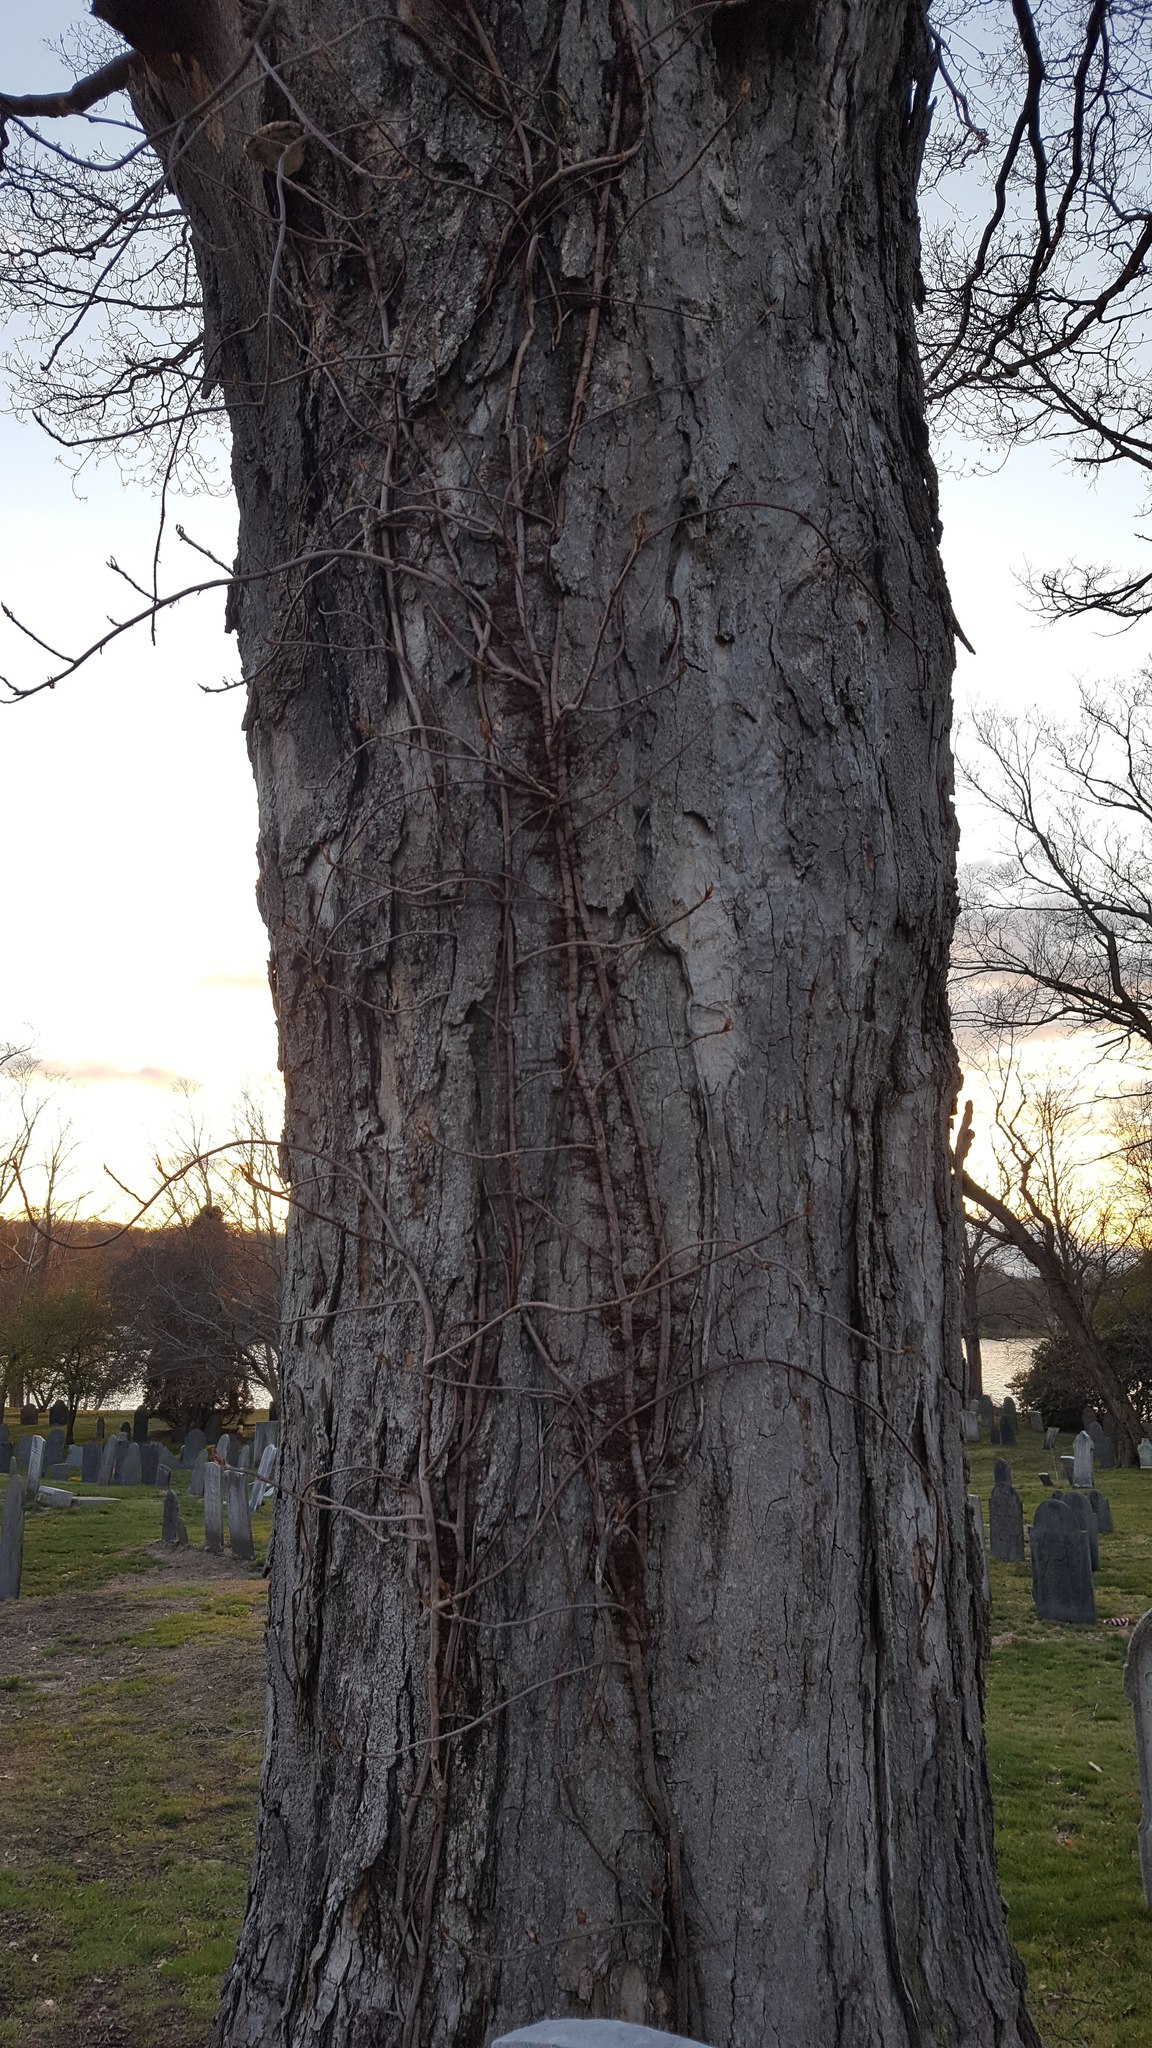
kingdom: Plantae
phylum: Tracheophyta
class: Magnoliopsida
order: Sapindales
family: Anacardiaceae
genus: Toxicodendron
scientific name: Toxicodendron radicans
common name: Poison ivy
